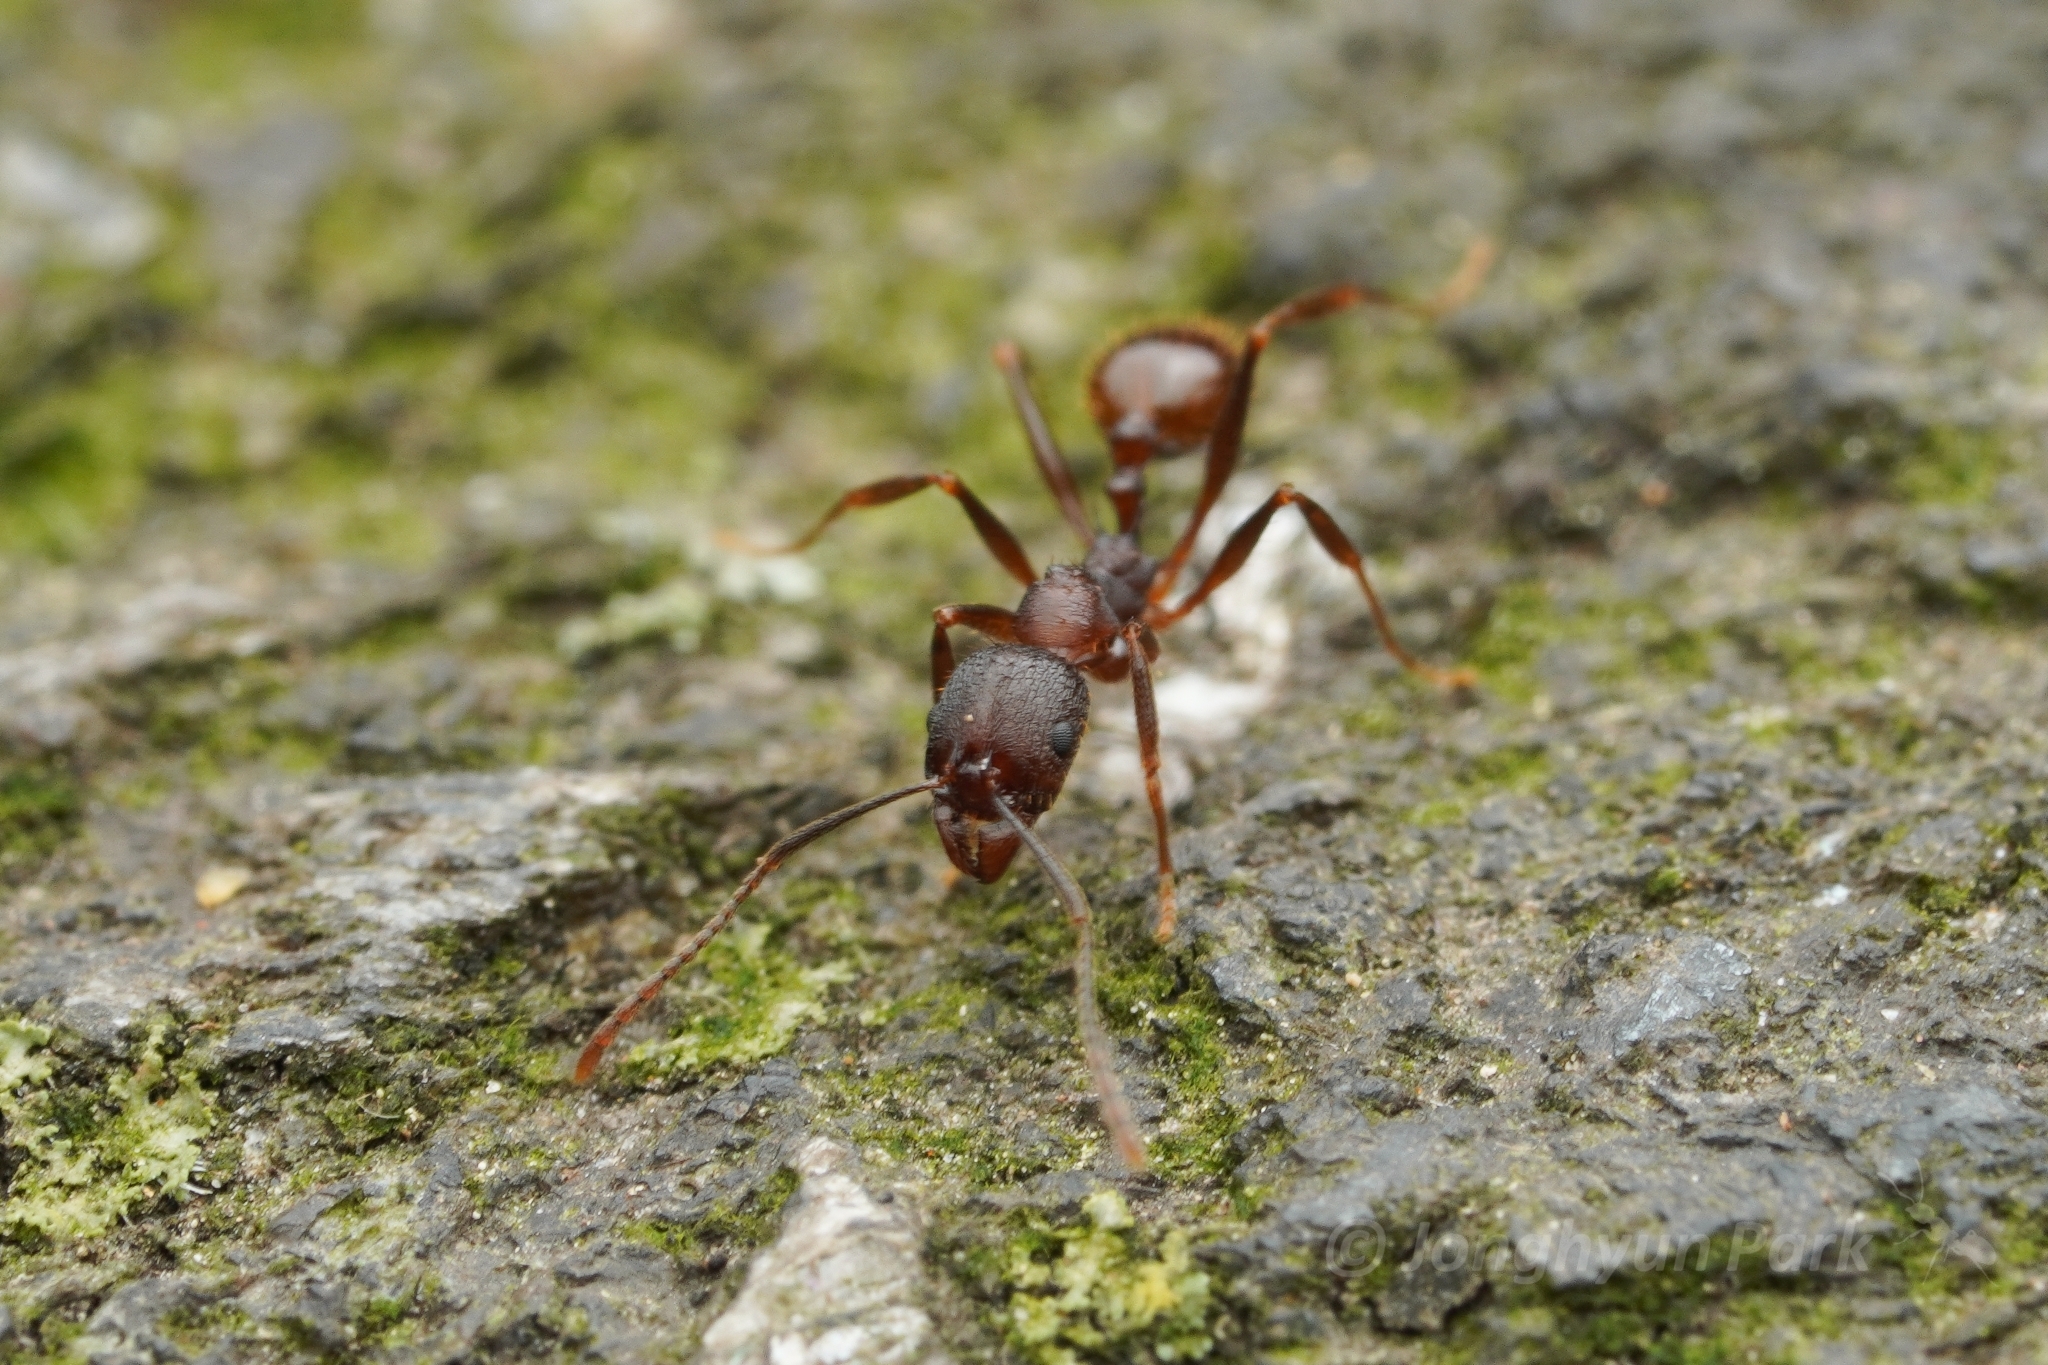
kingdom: Animalia
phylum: Arthropoda
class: Insecta
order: Hymenoptera
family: Formicidae
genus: Aphaenogaster
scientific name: Aphaenogaster fulva
